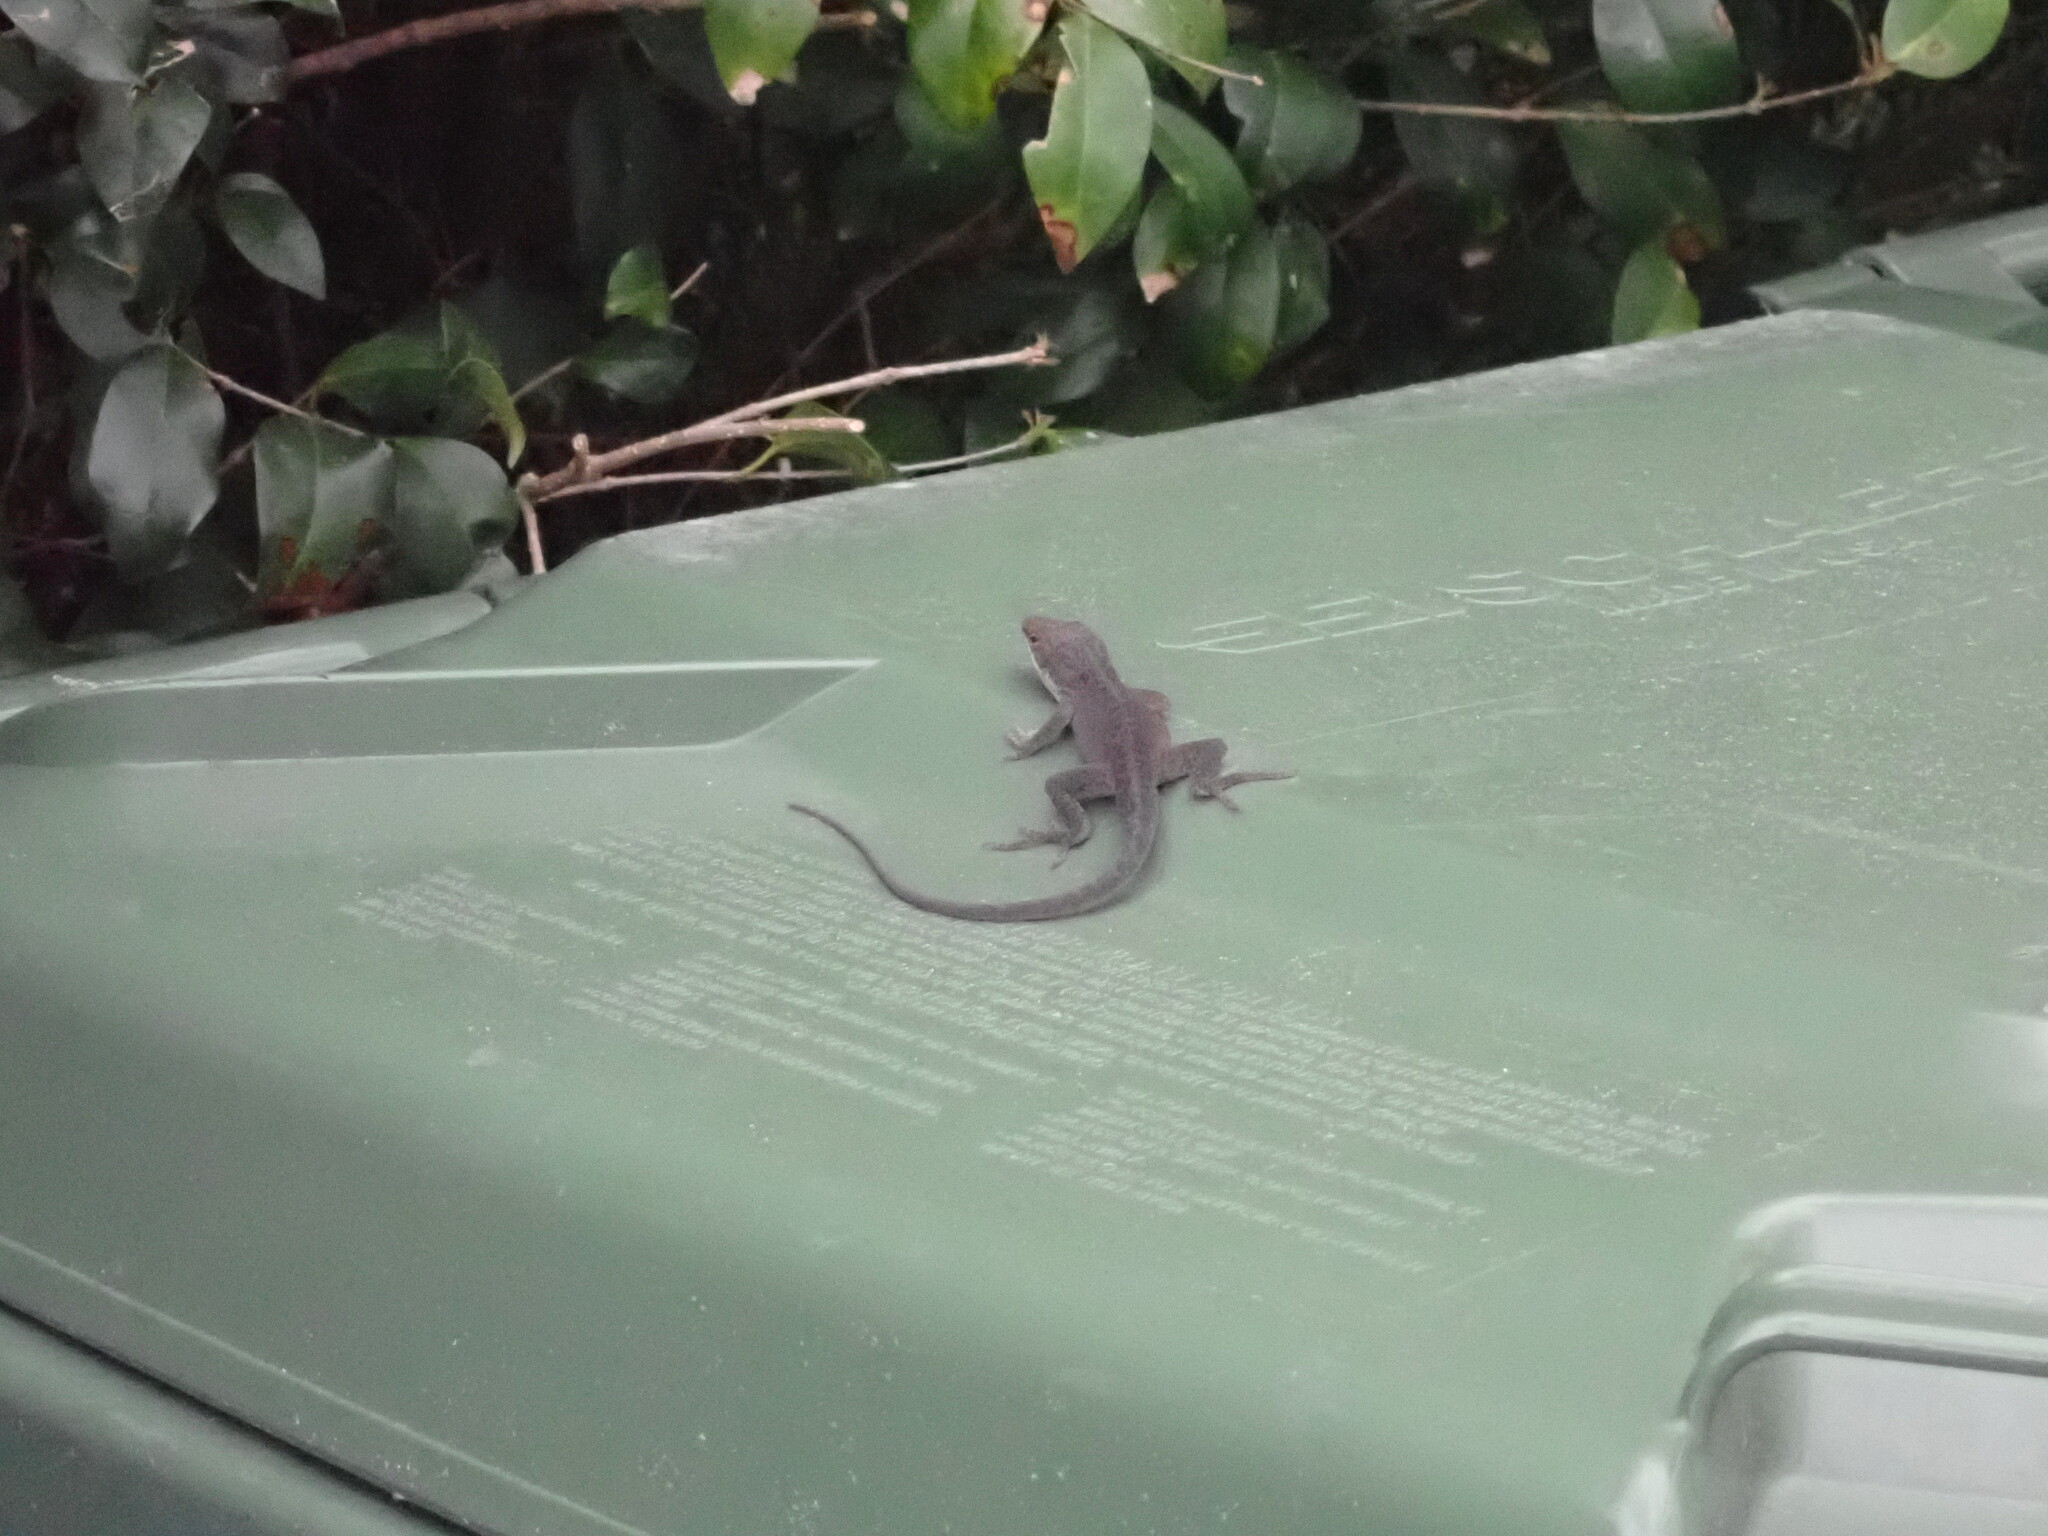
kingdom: Animalia
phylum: Chordata
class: Squamata
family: Dactyloidae
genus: Anolis
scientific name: Anolis carolinensis
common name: Green anole
